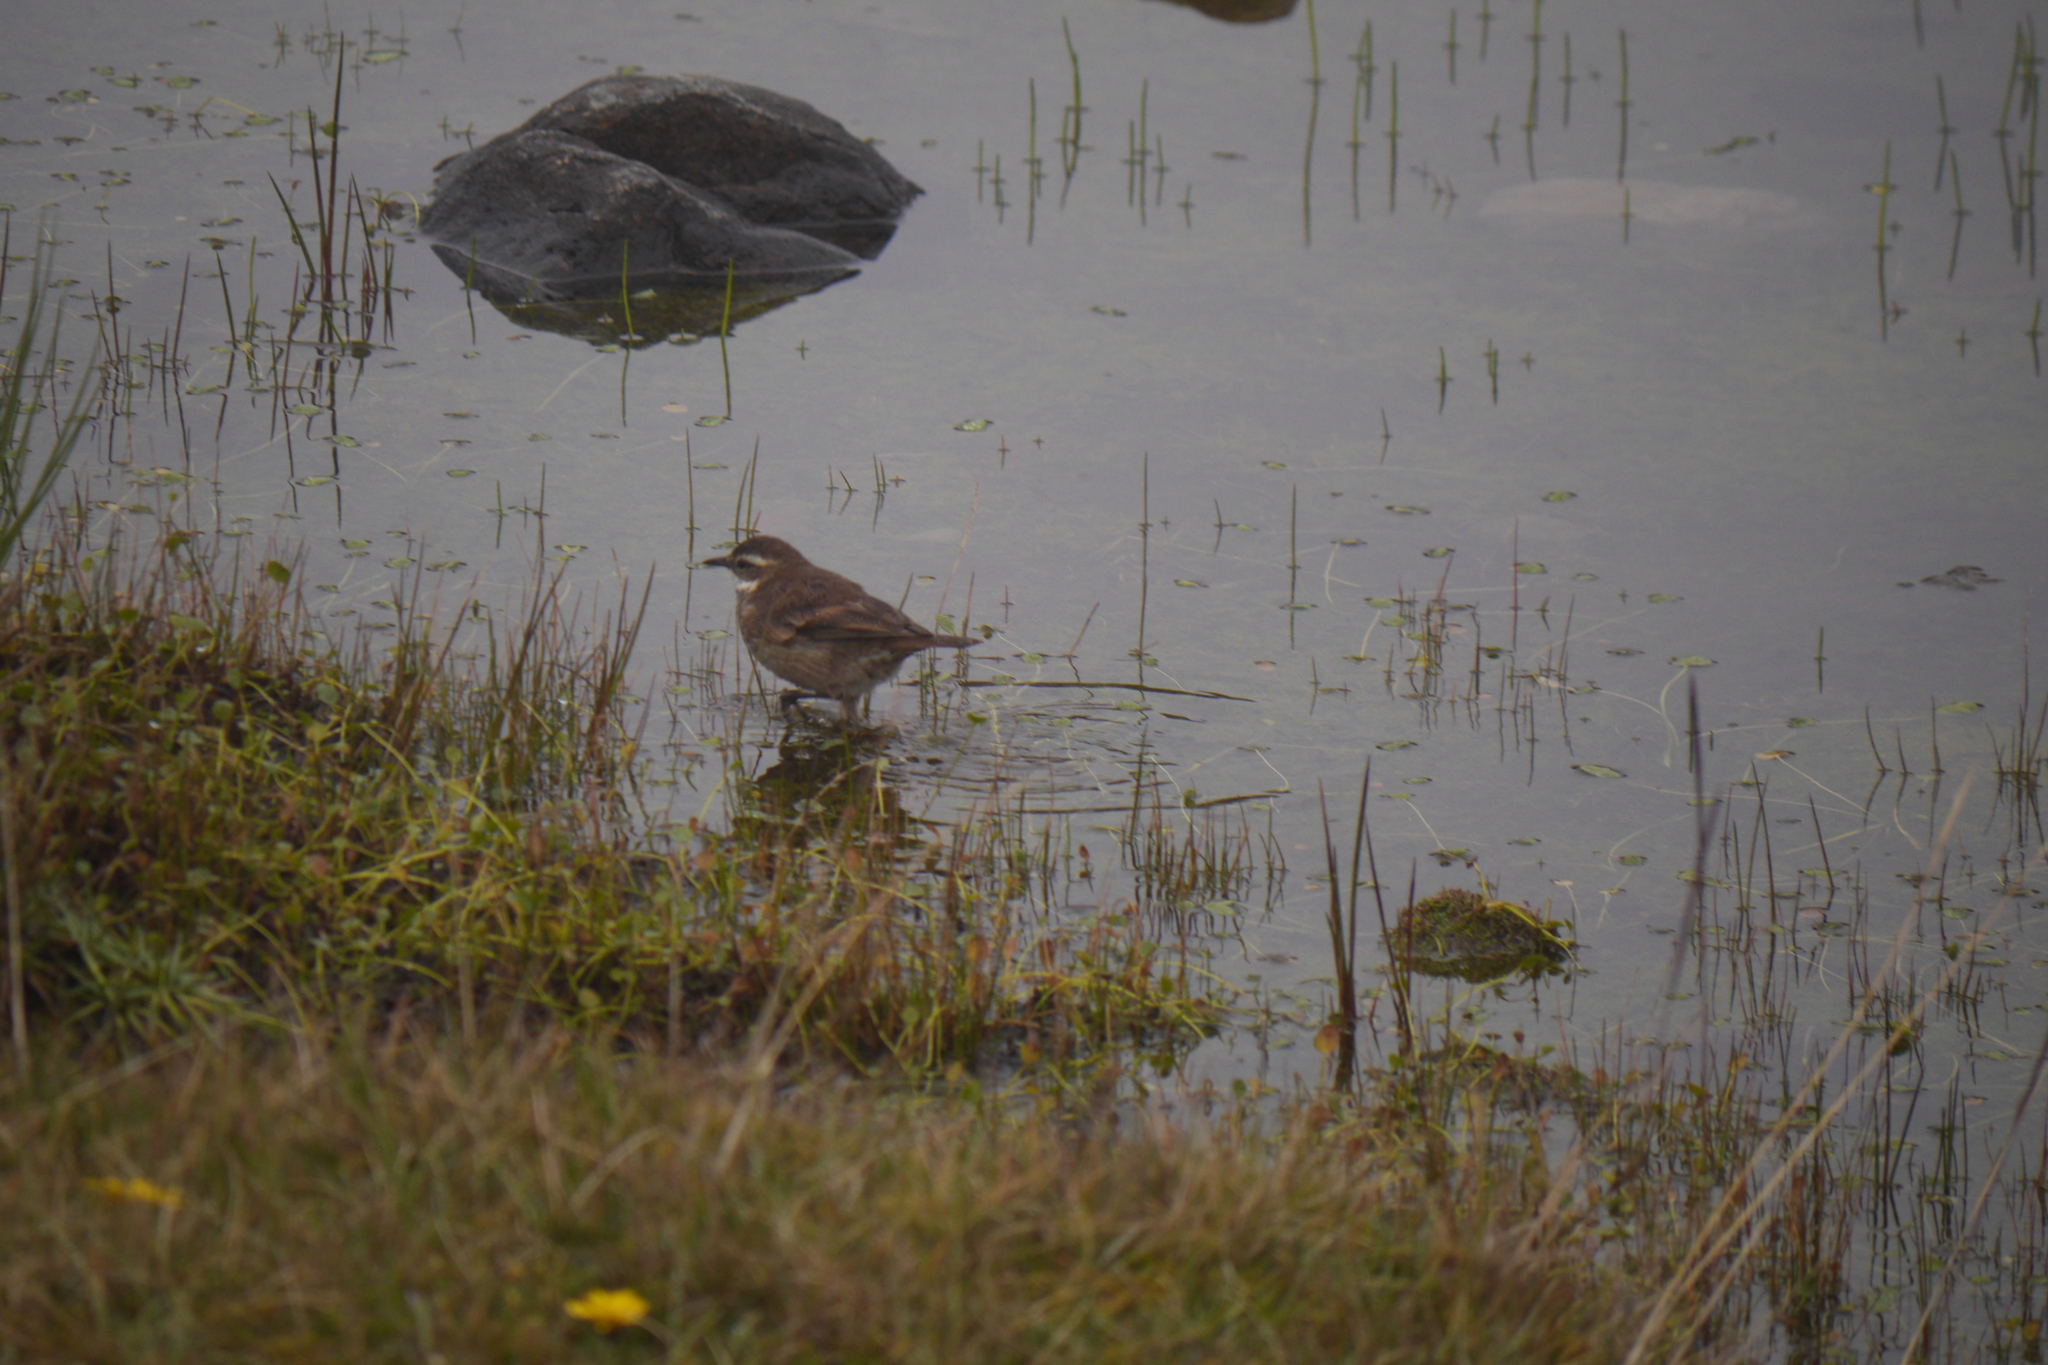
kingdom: Animalia
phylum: Chordata
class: Aves
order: Passeriformes
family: Furnariidae
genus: Cinclodes
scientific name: Cinclodes albidiventris
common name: Chestnut-winged cinclodes
